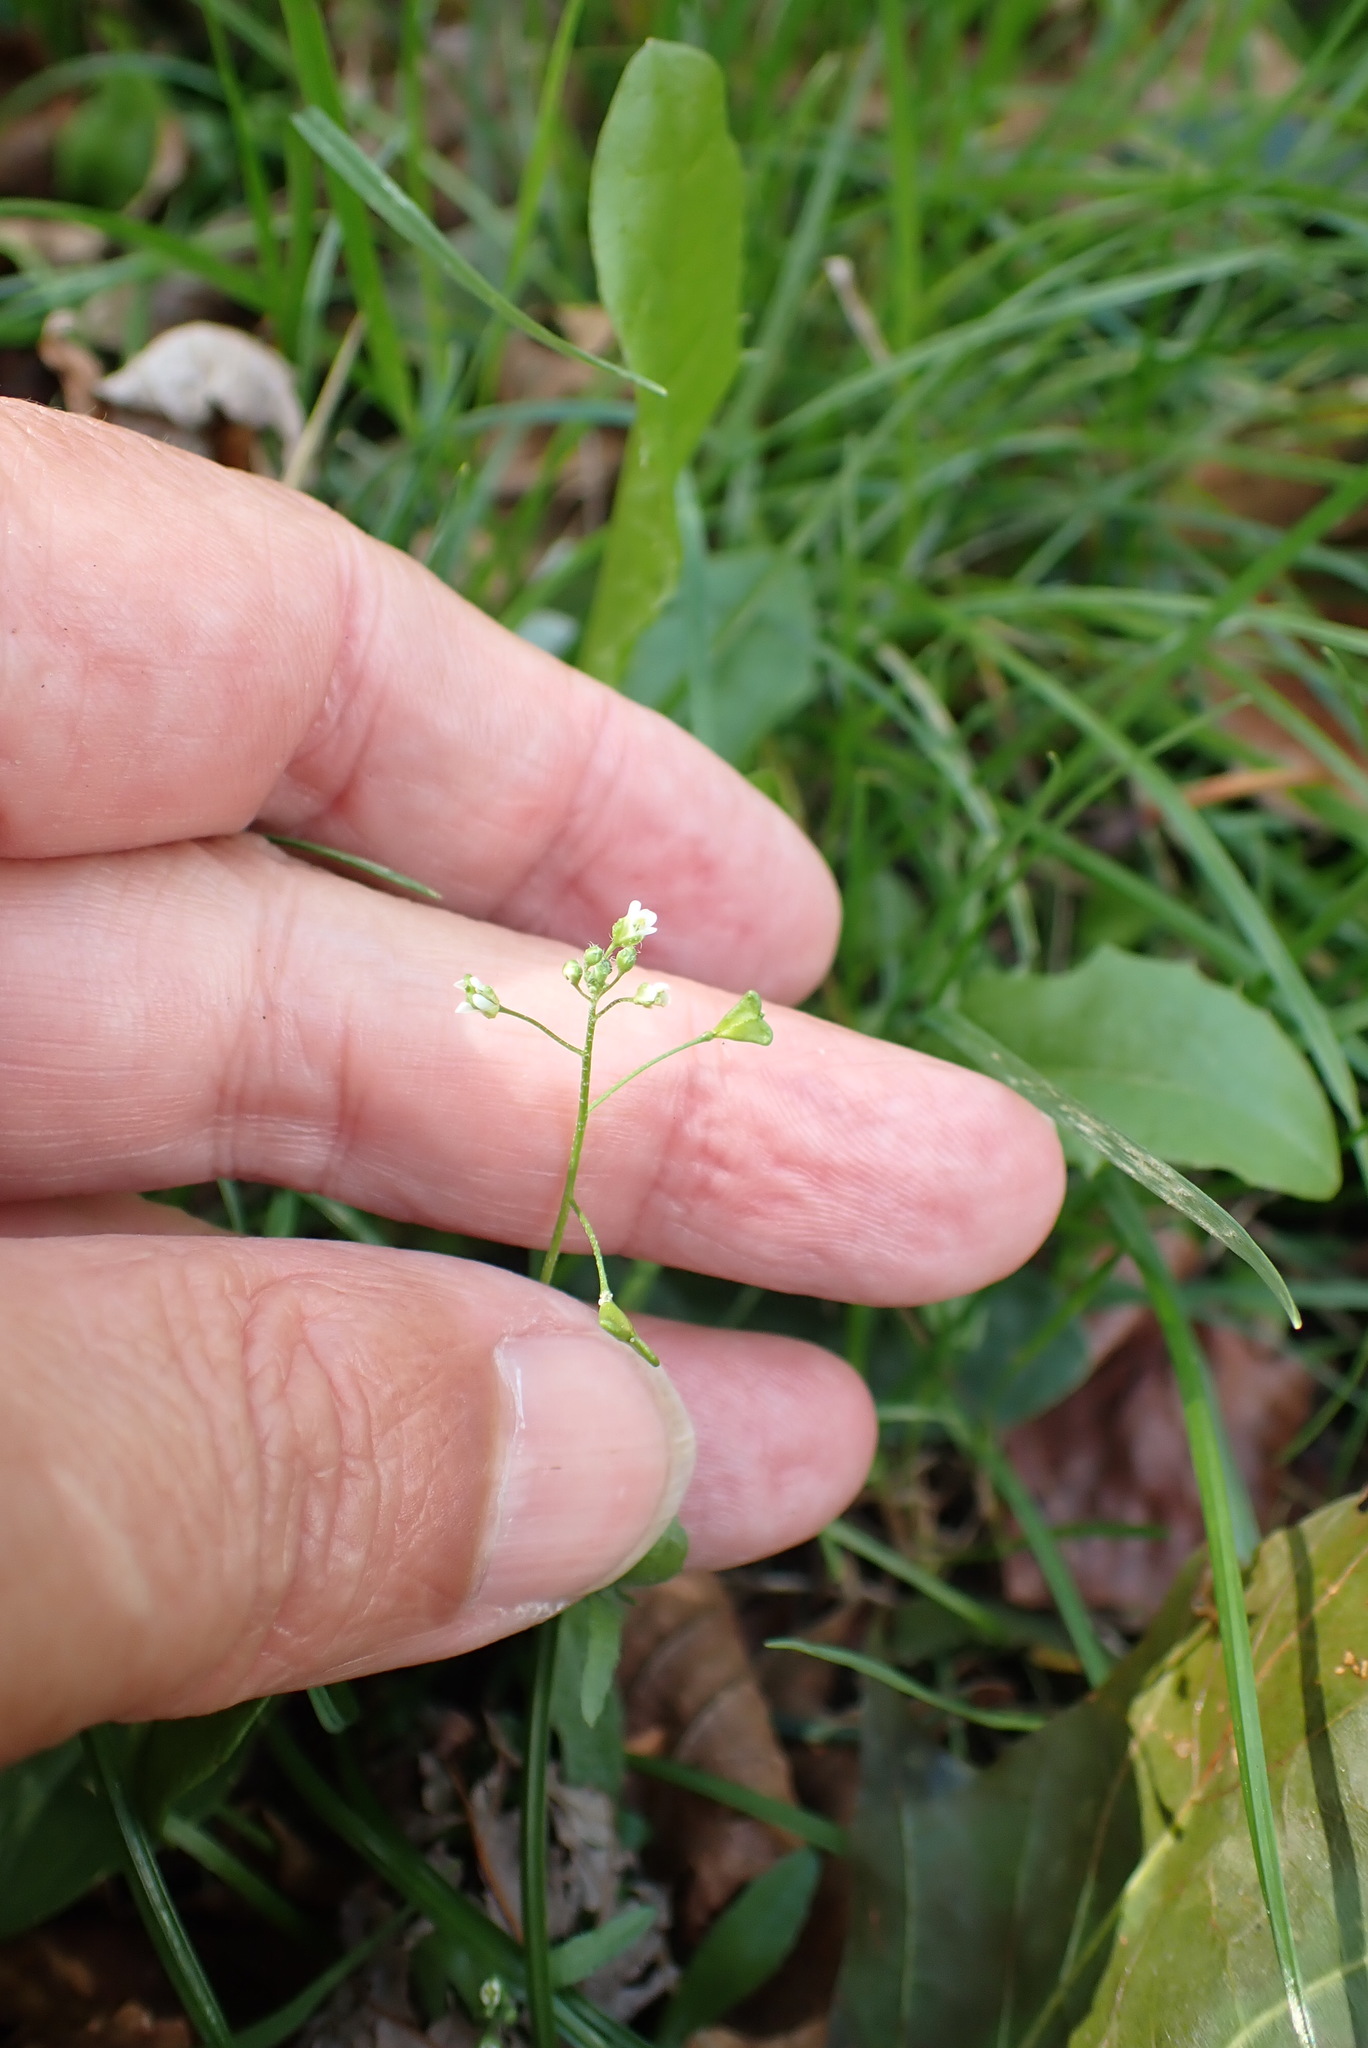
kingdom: Plantae
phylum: Tracheophyta
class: Magnoliopsida
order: Brassicales
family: Brassicaceae
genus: Capsella
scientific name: Capsella bursa-pastoris
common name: Shepherd's purse
